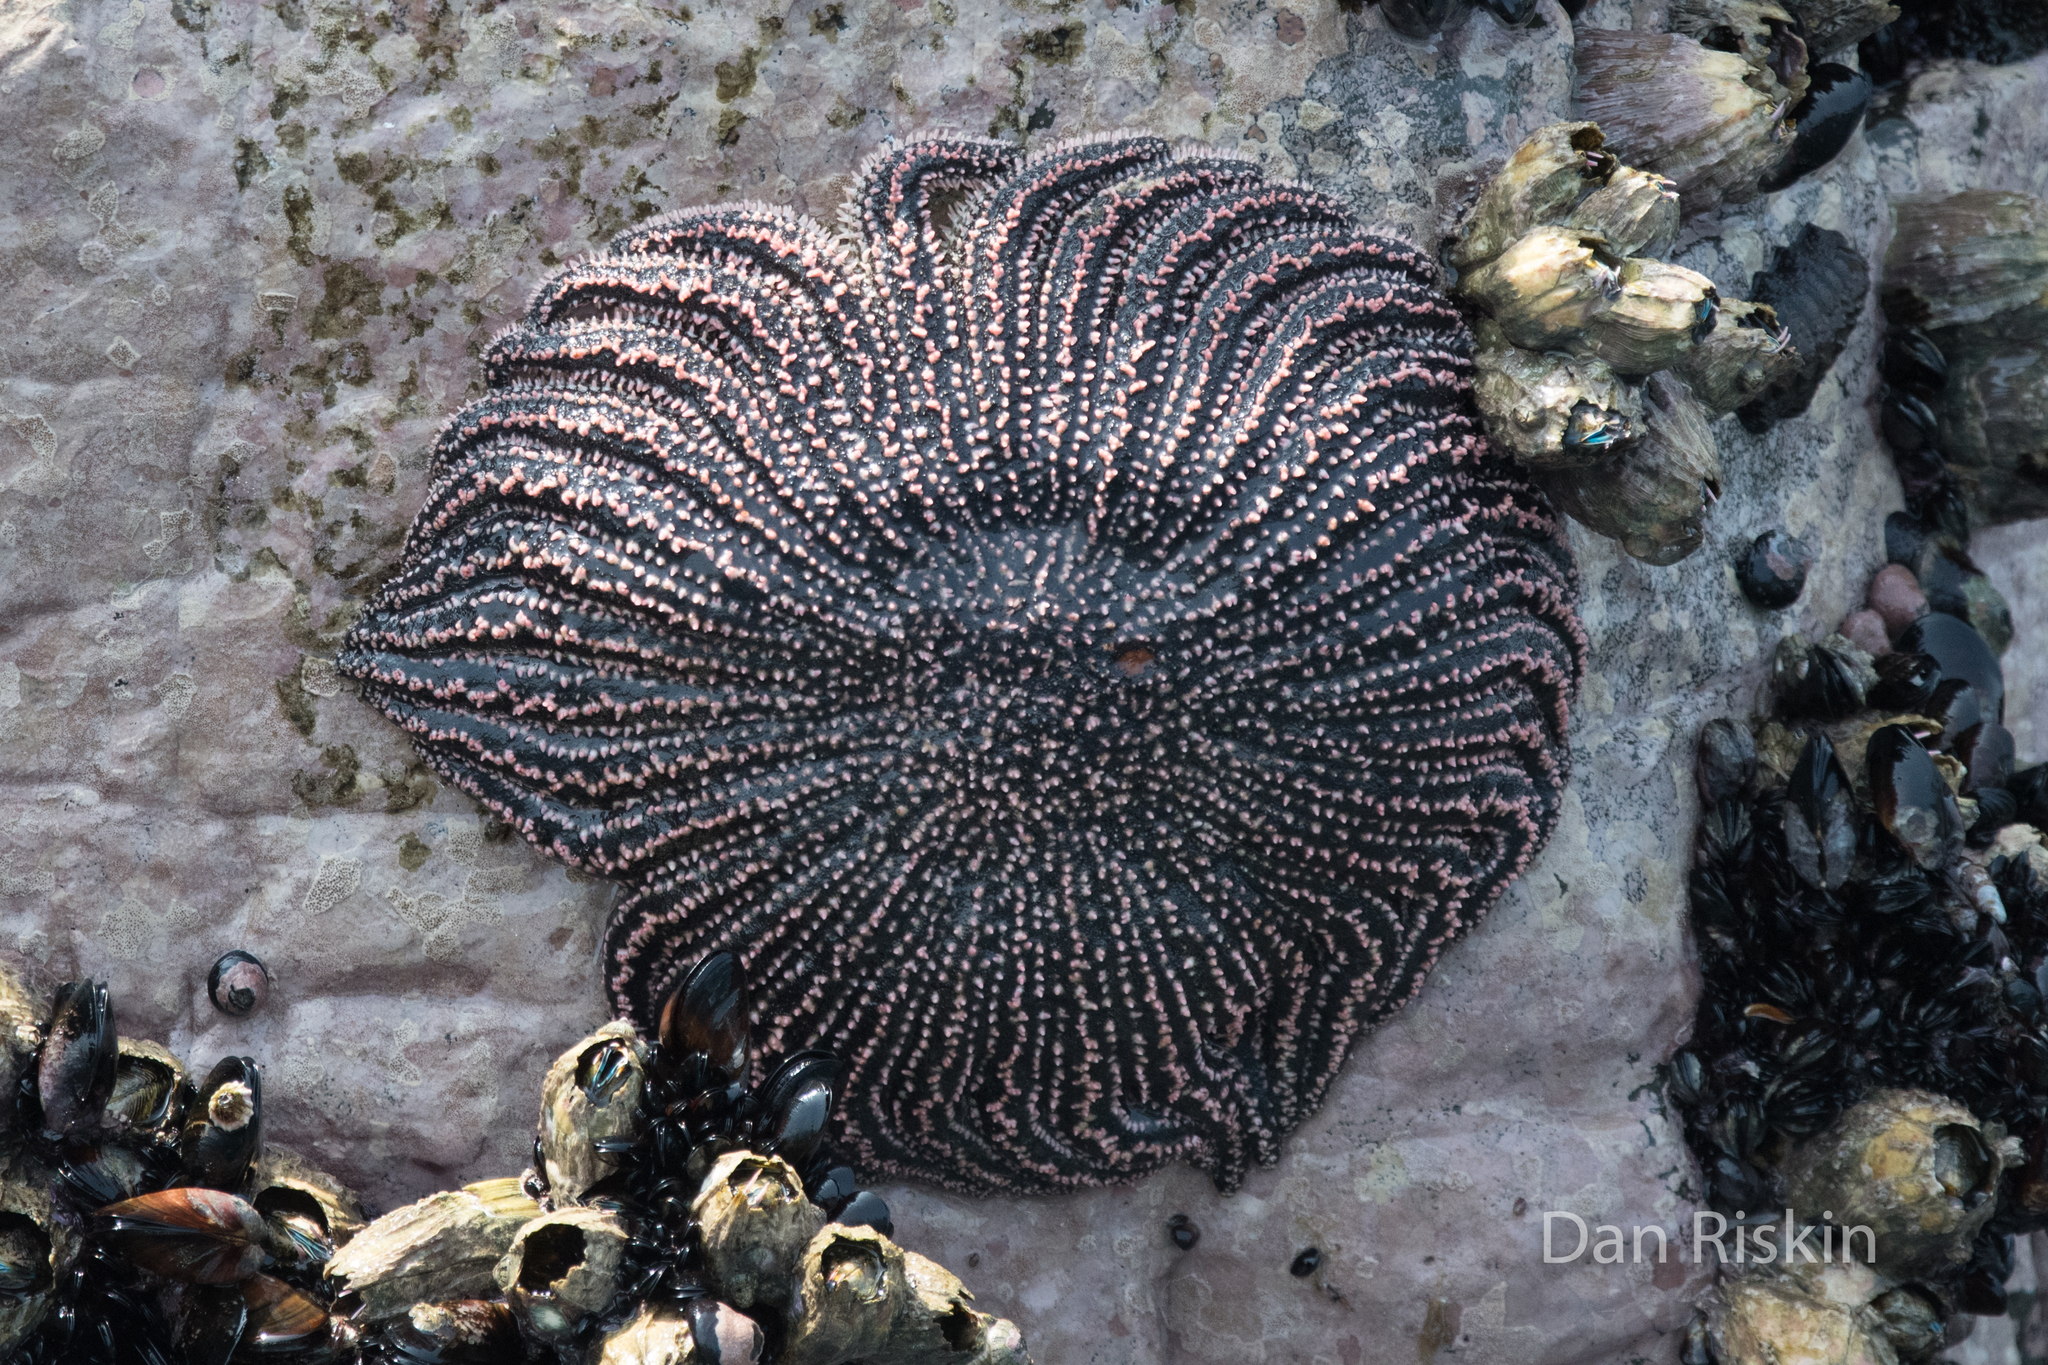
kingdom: Animalia
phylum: Echinodermata
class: Asteroidea
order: Forcipulatida
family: Heliasteridae
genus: Heliaster
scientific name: Heliaster helianthus
